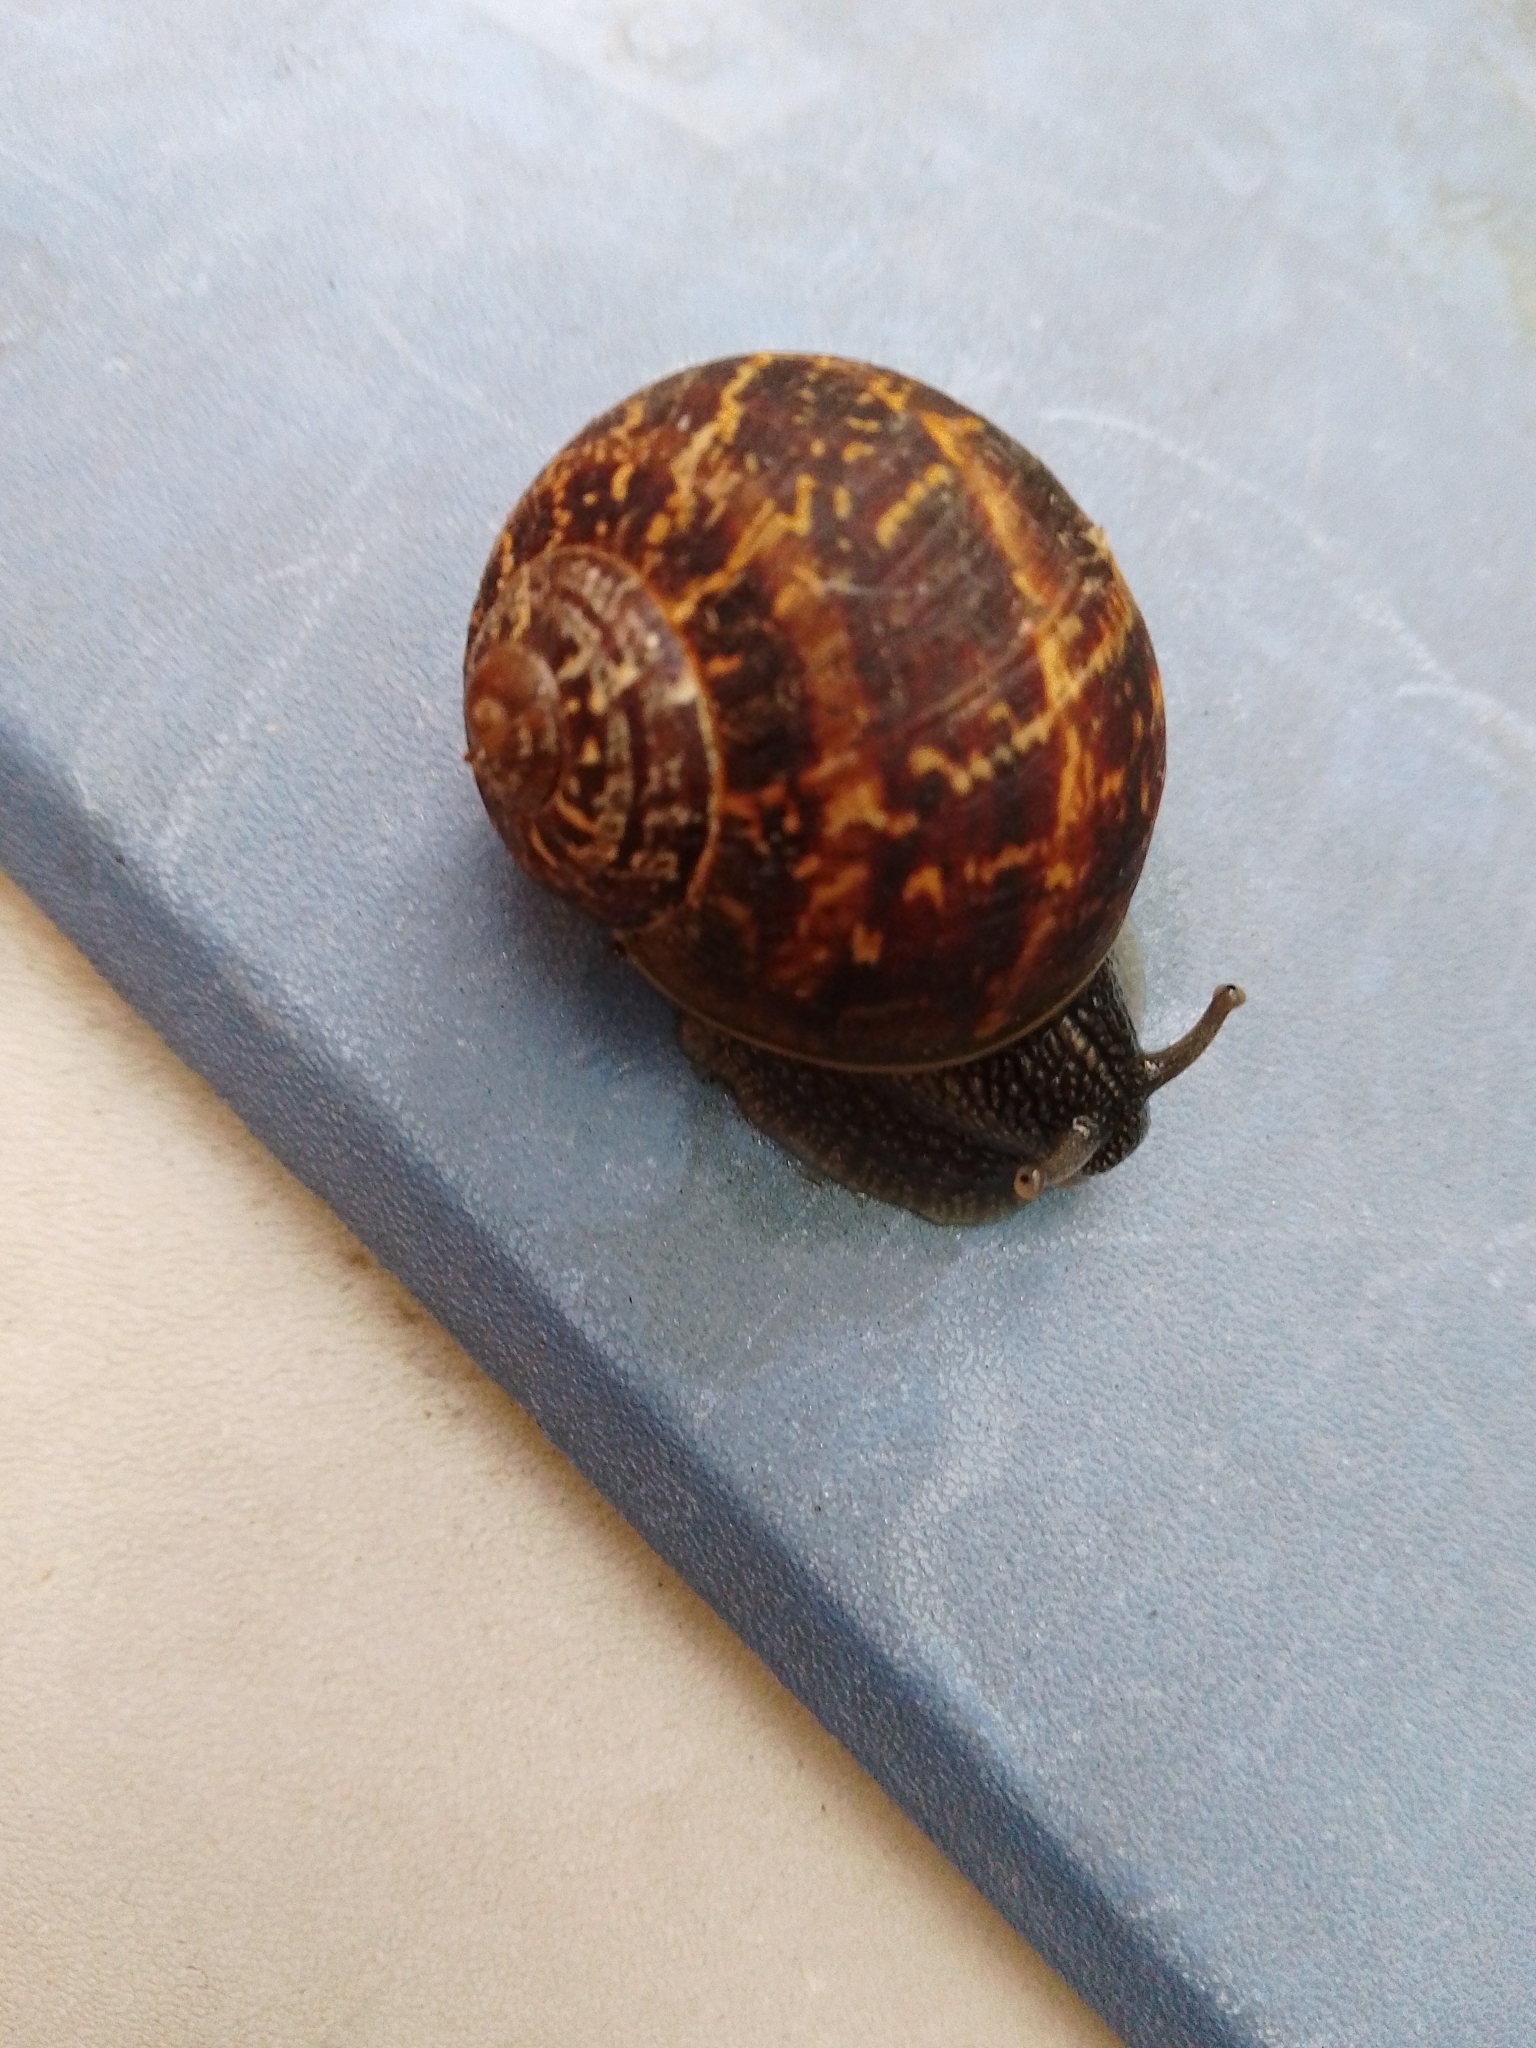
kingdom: Animalia
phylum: Mollusca
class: Gastropoda
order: Stylommatophora
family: Helicidae
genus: Cornu
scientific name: Cornu aspersum
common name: Brown garden snail
